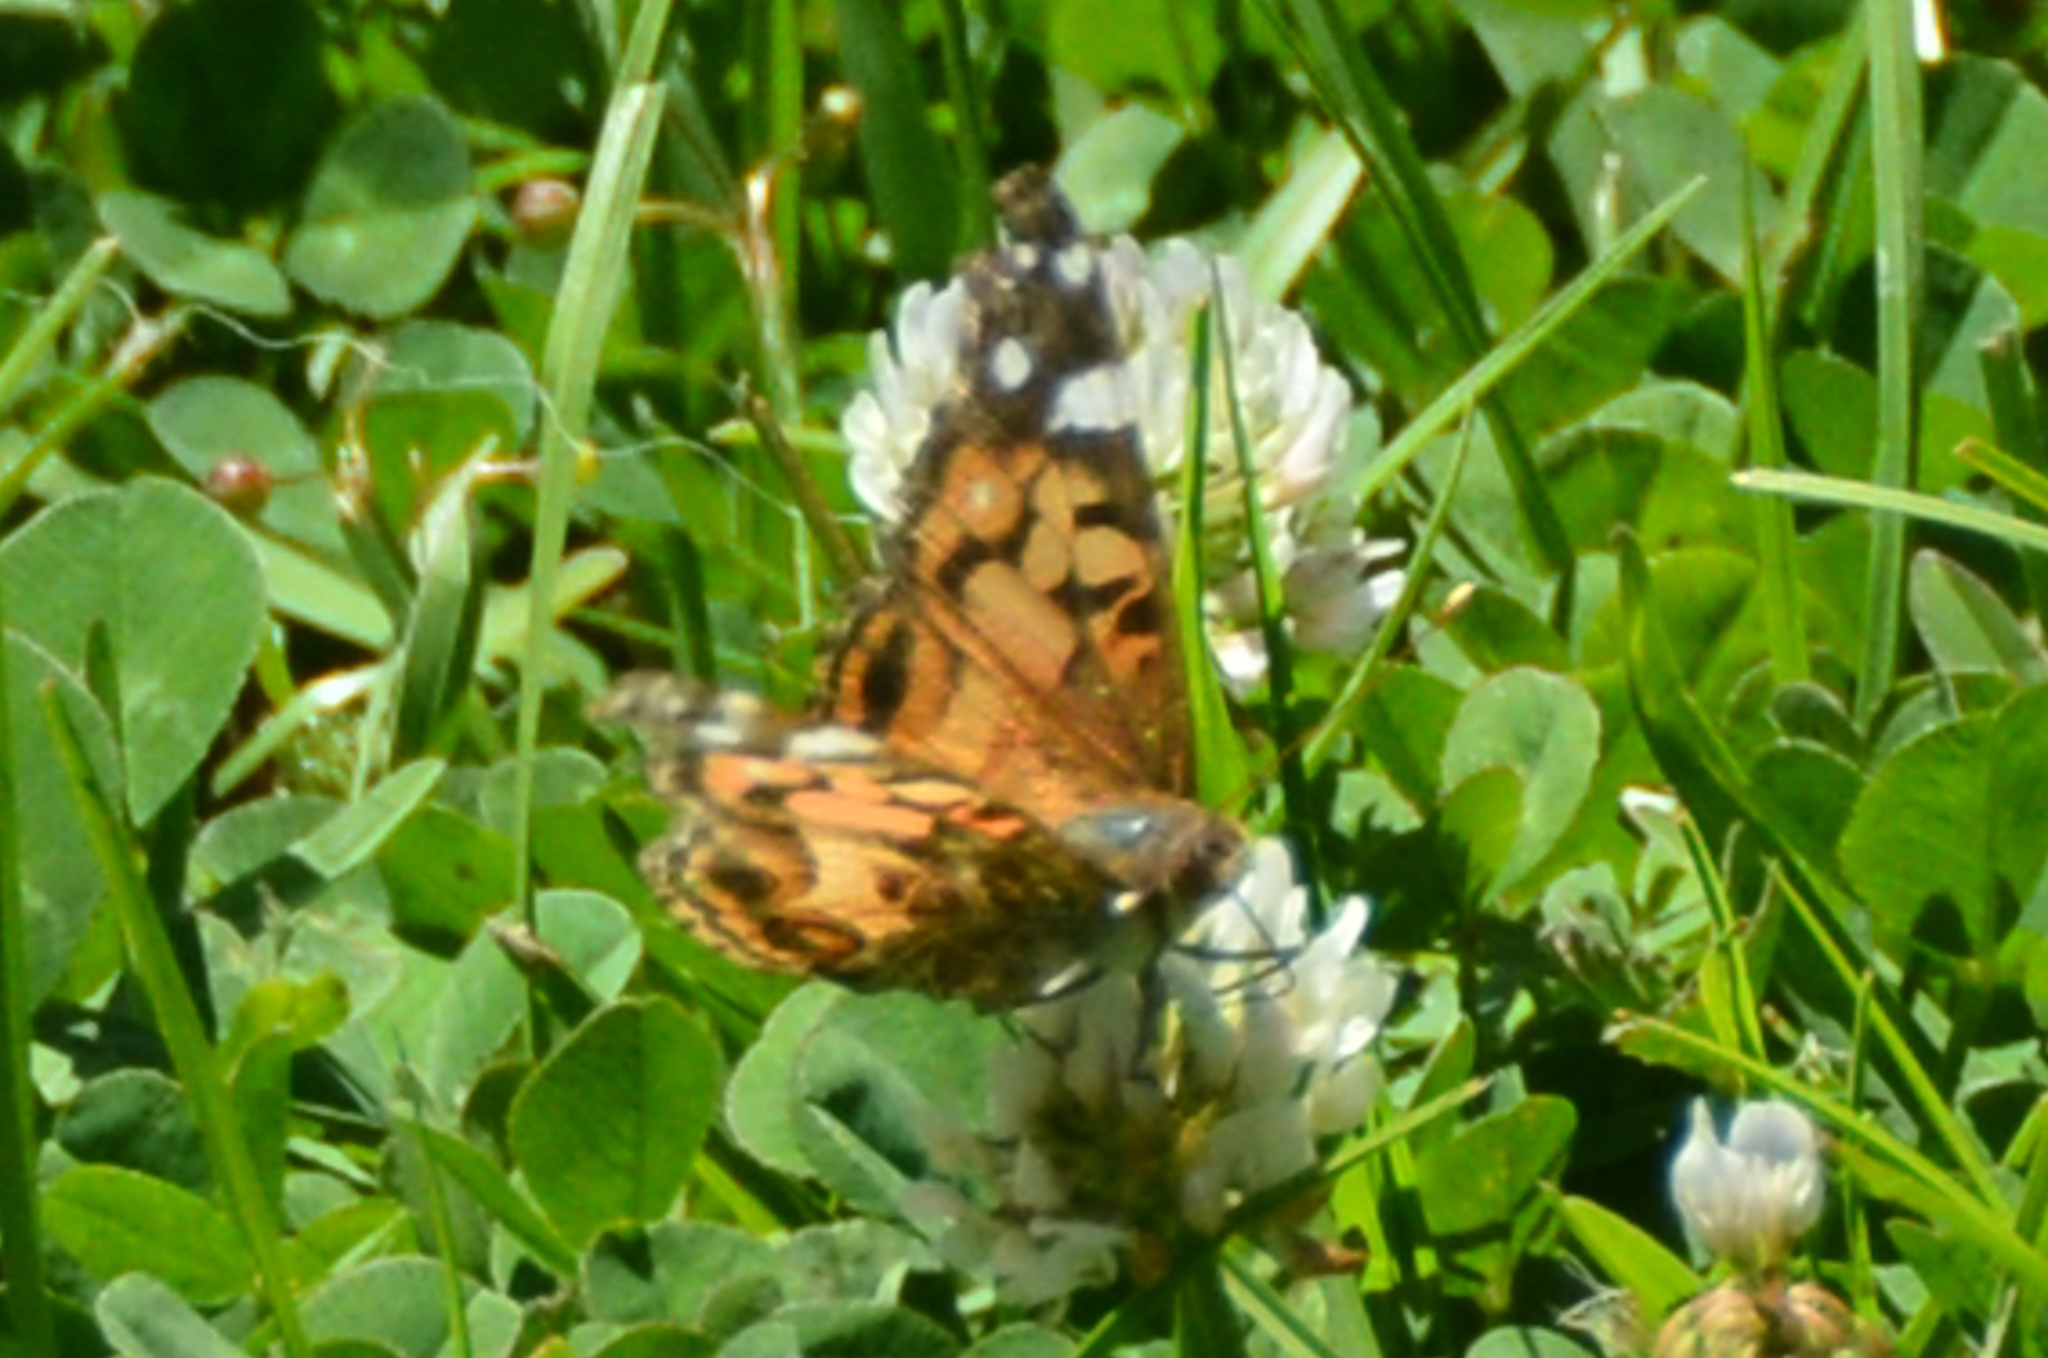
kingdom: Animalia
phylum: Arthropoda
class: Insecta
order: Lepidoptera
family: Nymphalidae
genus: Vanessa
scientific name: Vanessa virginiensis
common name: American lady
